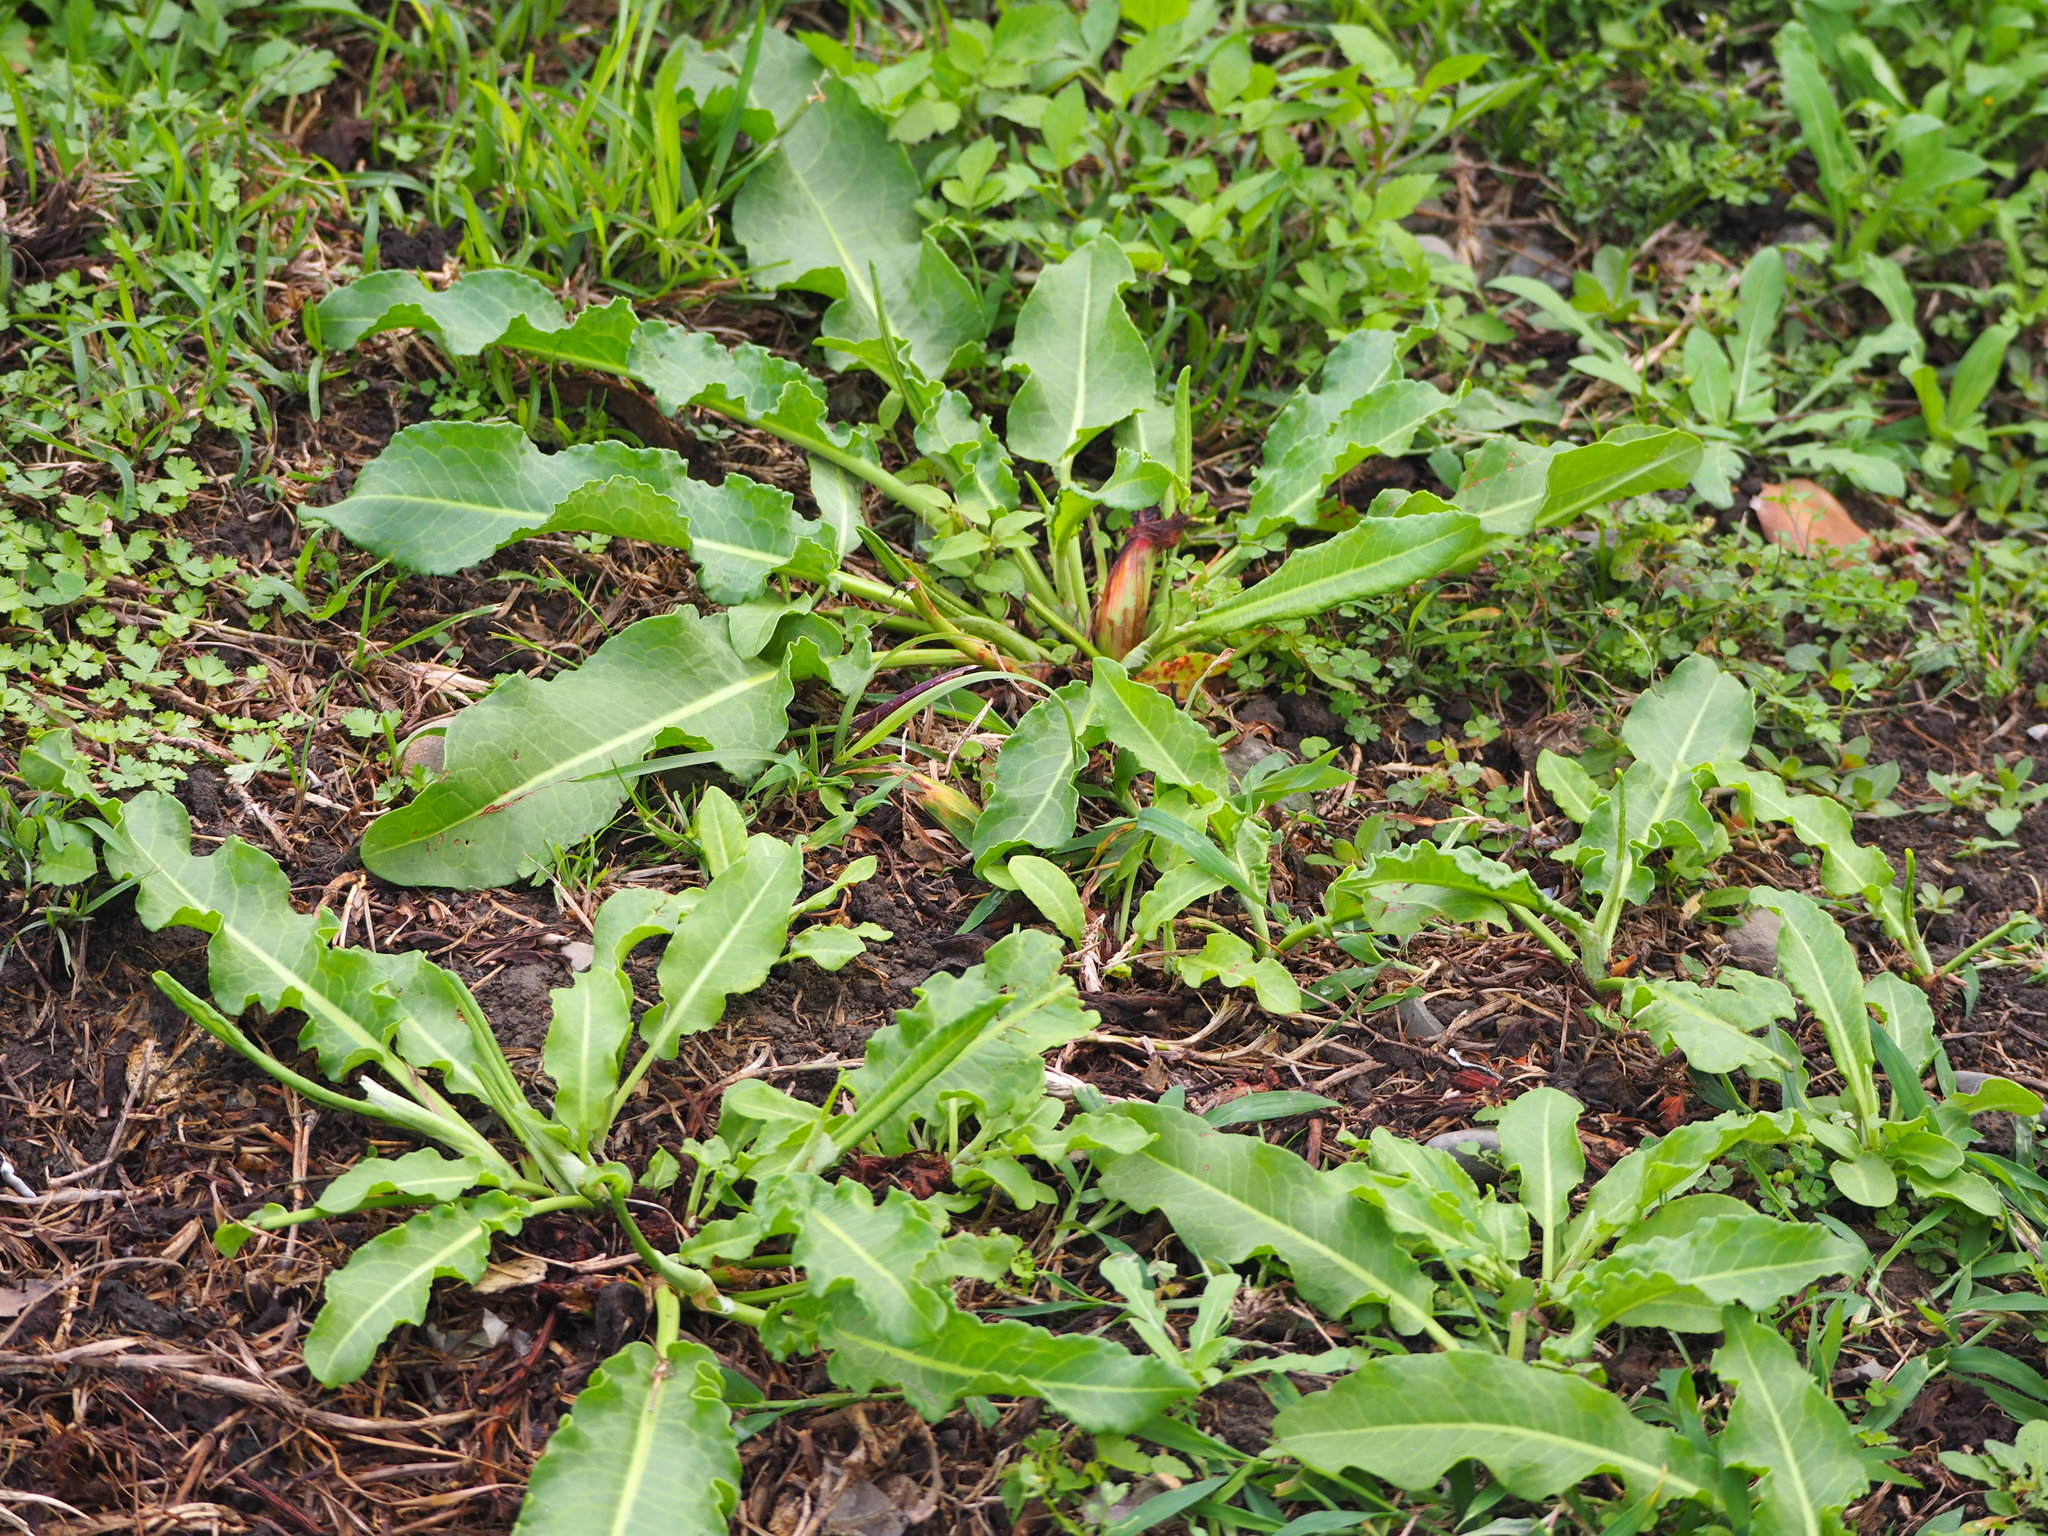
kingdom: Plantae
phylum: Tracheophyta
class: Magnoliopsida
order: Caryophyllales
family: Polygonaceae
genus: Rumex
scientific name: Rumex japonicus
